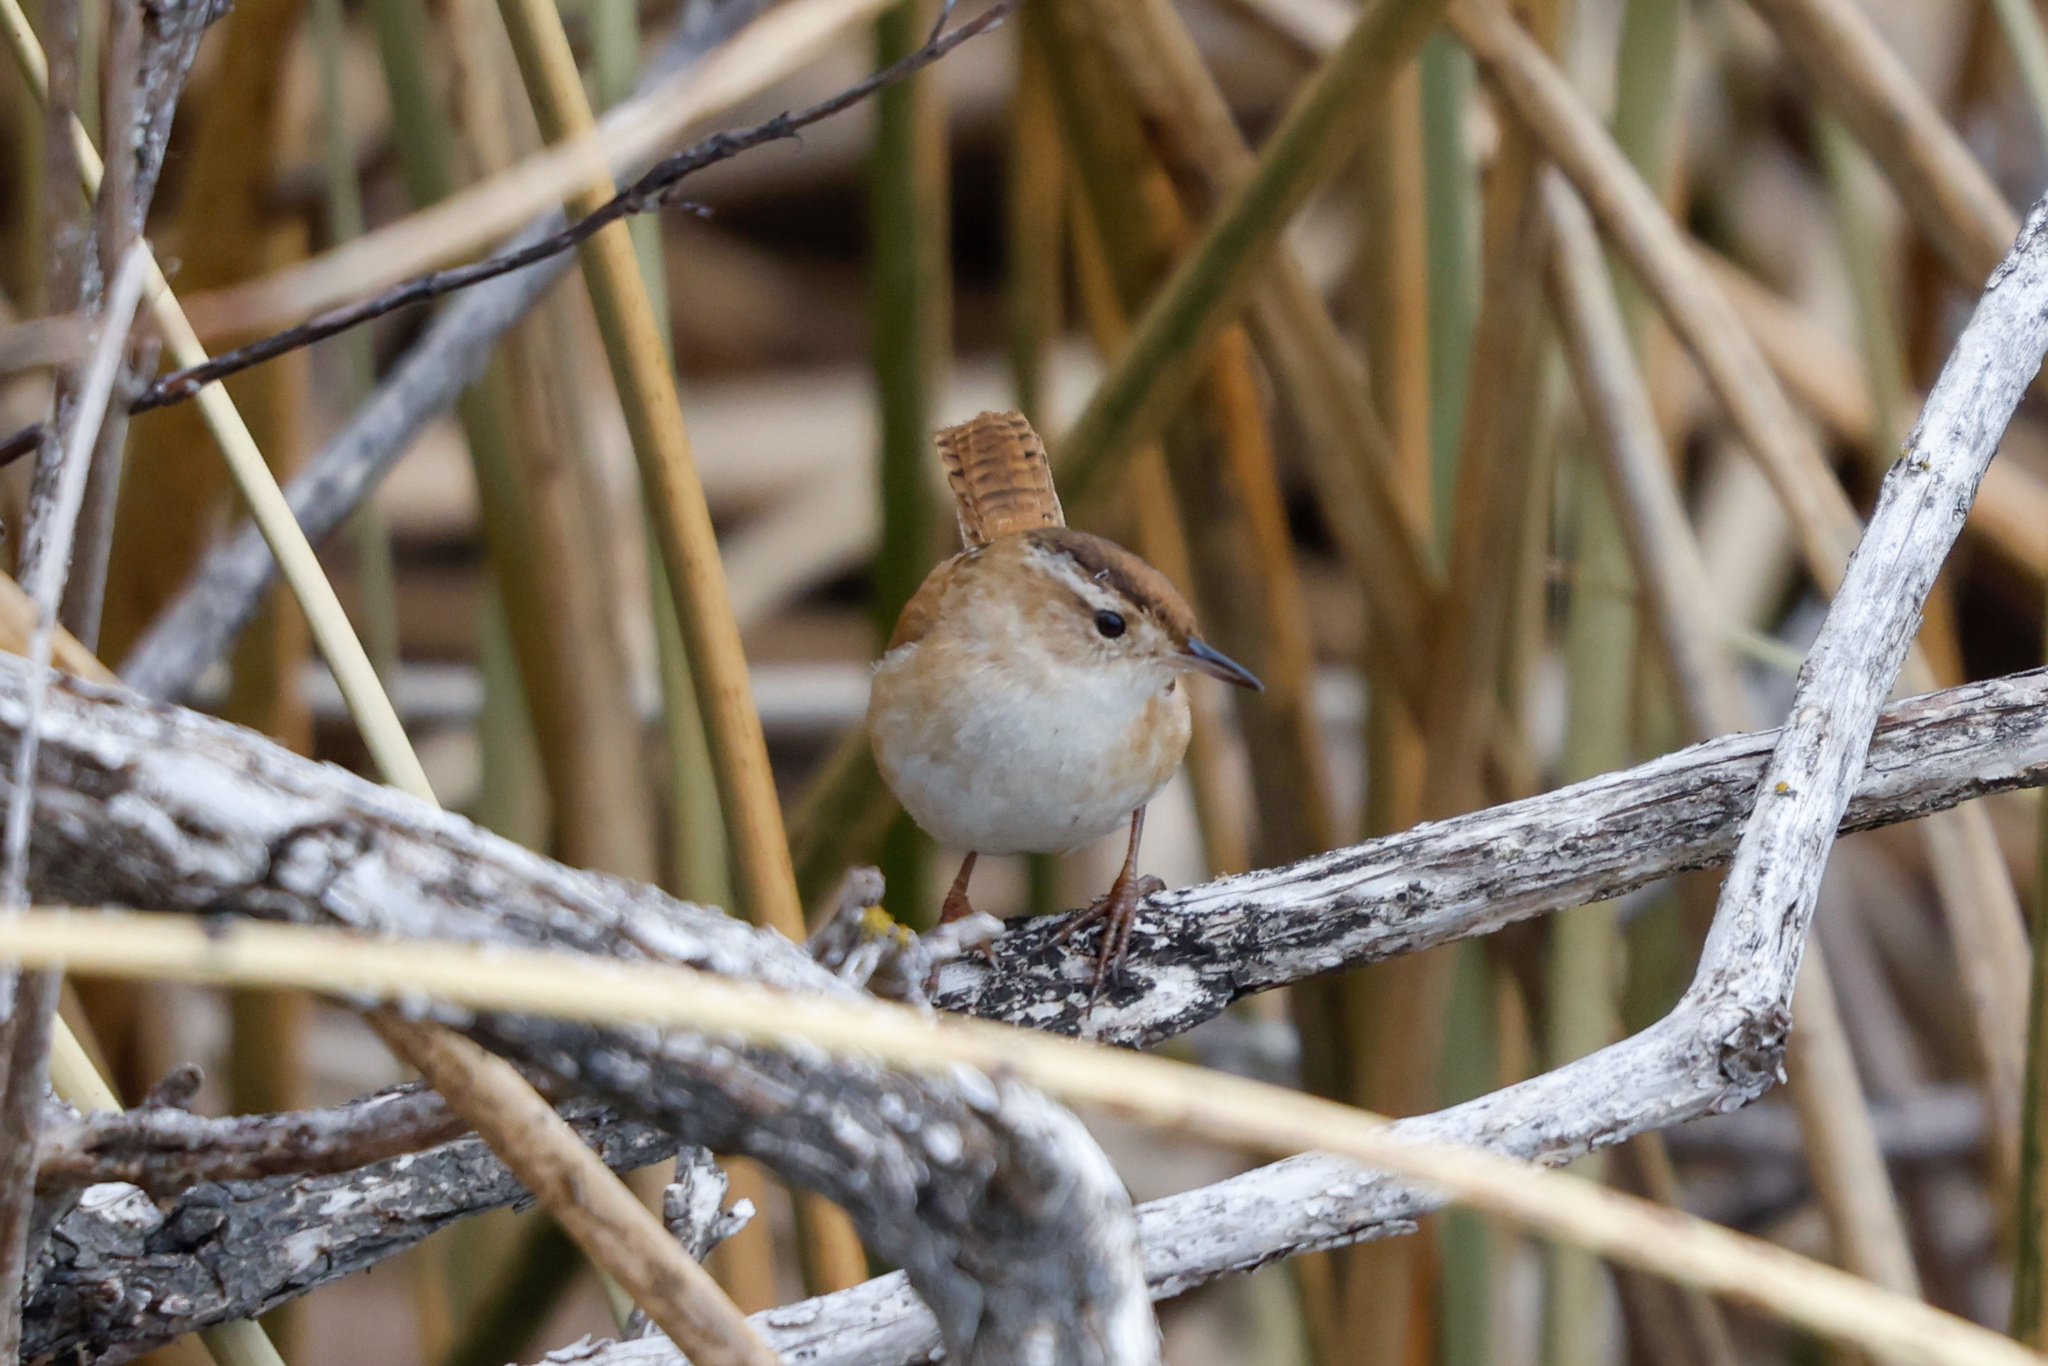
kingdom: Animalia
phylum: Chordata
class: Aves
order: Passeriformes
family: Troglodytidae
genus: Cistothorus
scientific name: Cistothorus palustris
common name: Marsh wren
